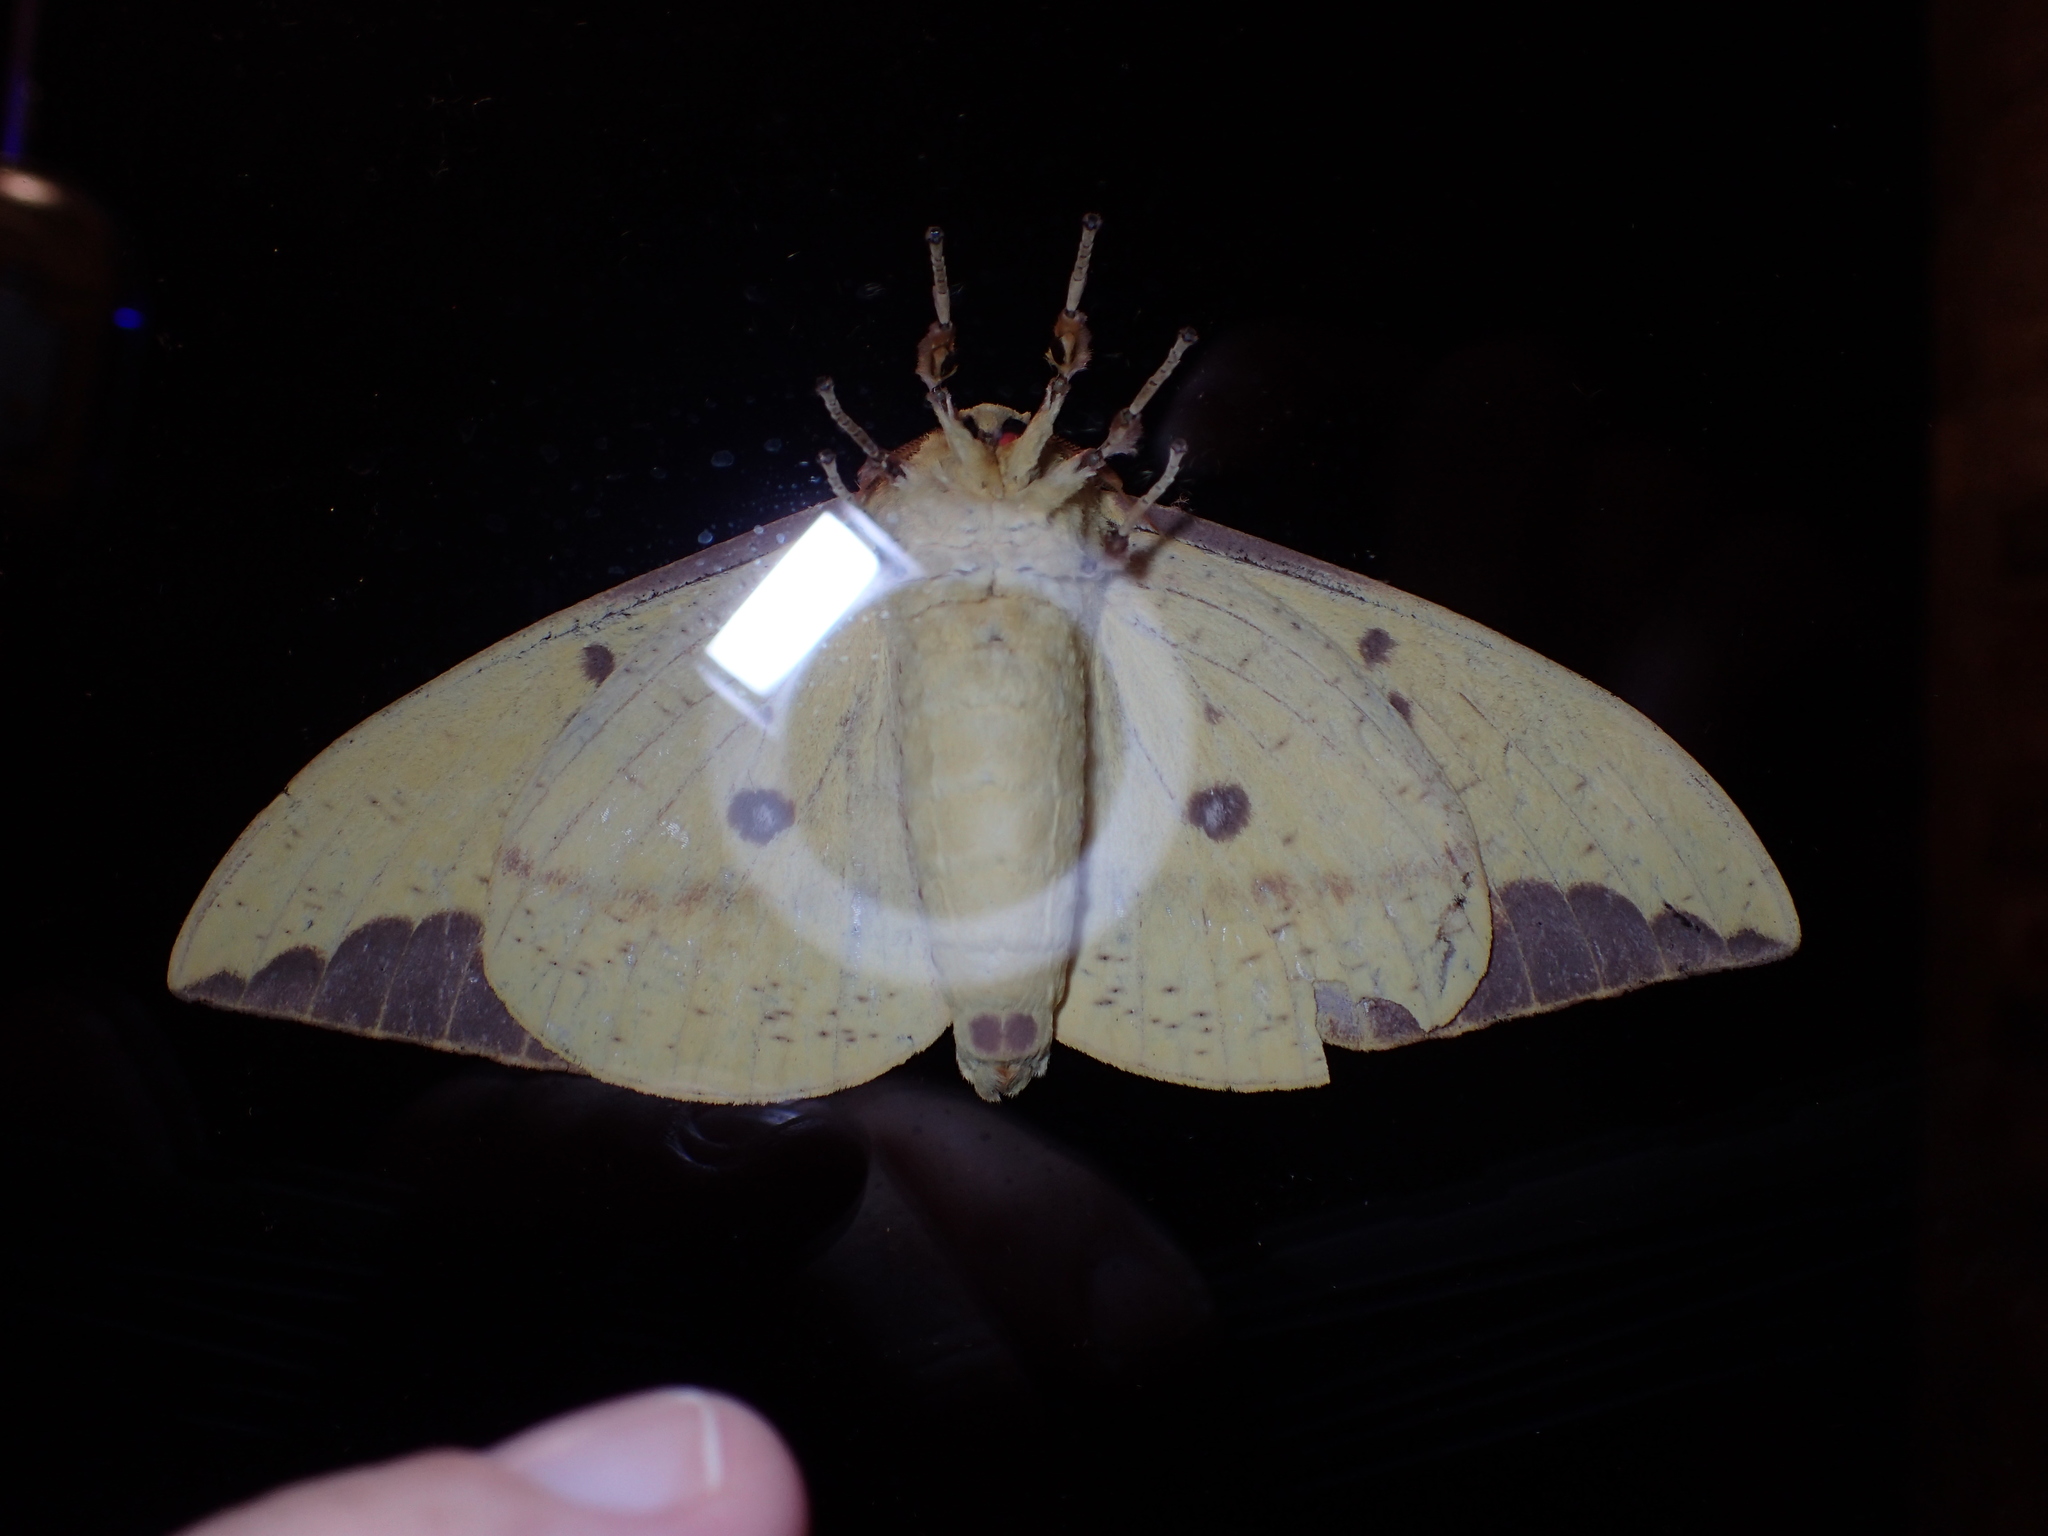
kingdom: Animalia
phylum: Arthropoda
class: Insecta
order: Lepidoptera
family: Saturniidae
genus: Eacles
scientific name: Eacles imperialis
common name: Imperial moth
